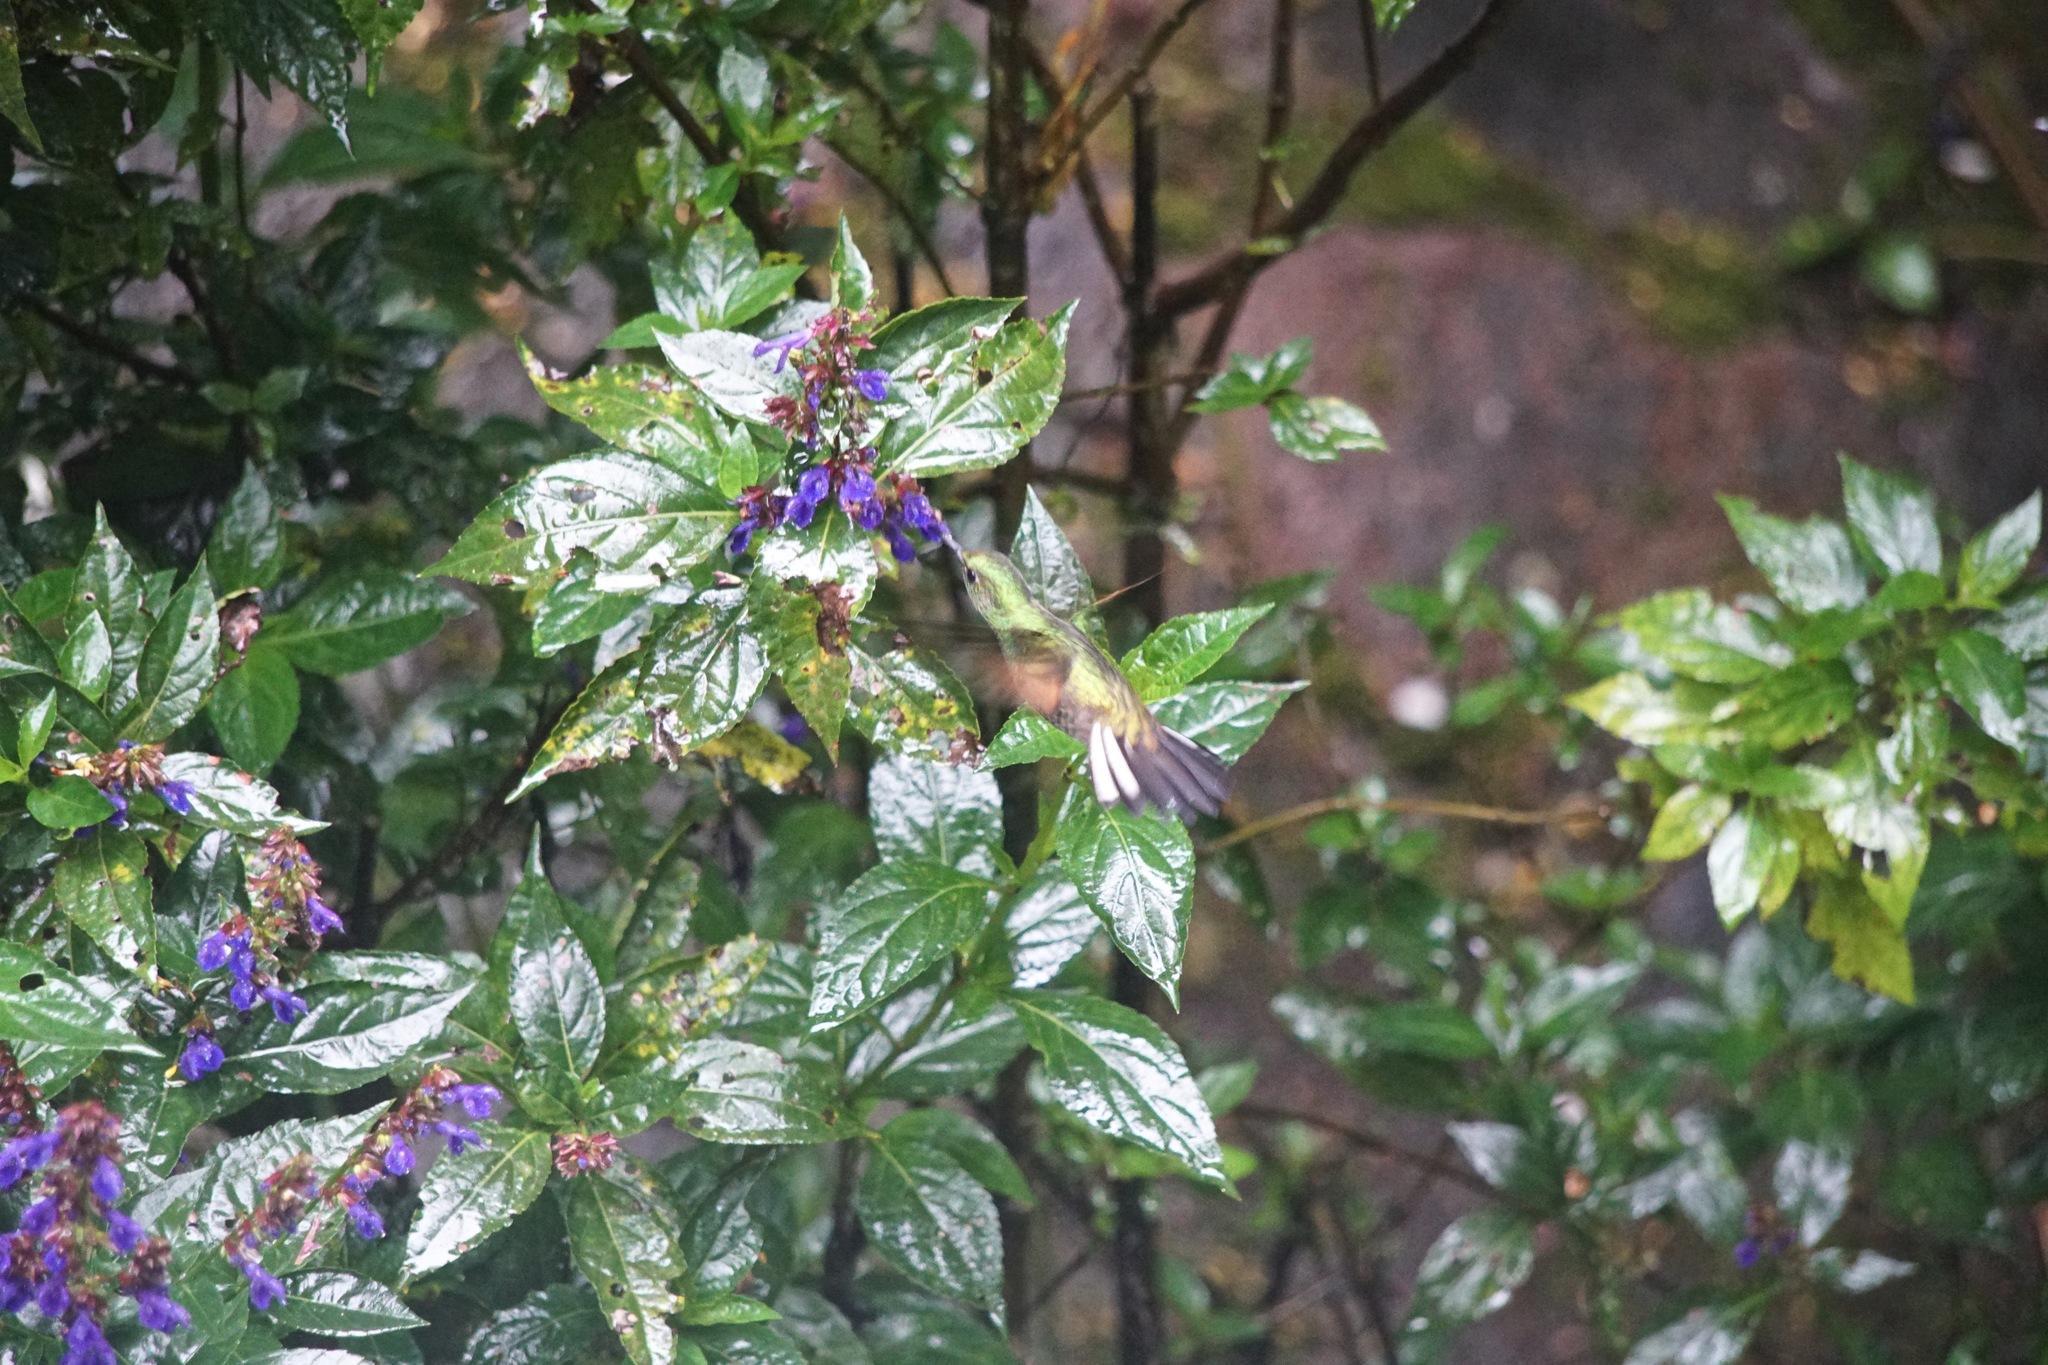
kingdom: Animalia
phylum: Chordata
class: Aves
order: Apodiformes
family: Trochilidae
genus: Eupherusa
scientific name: Eupherusa eximia
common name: Stripe-tailed hummingbird
